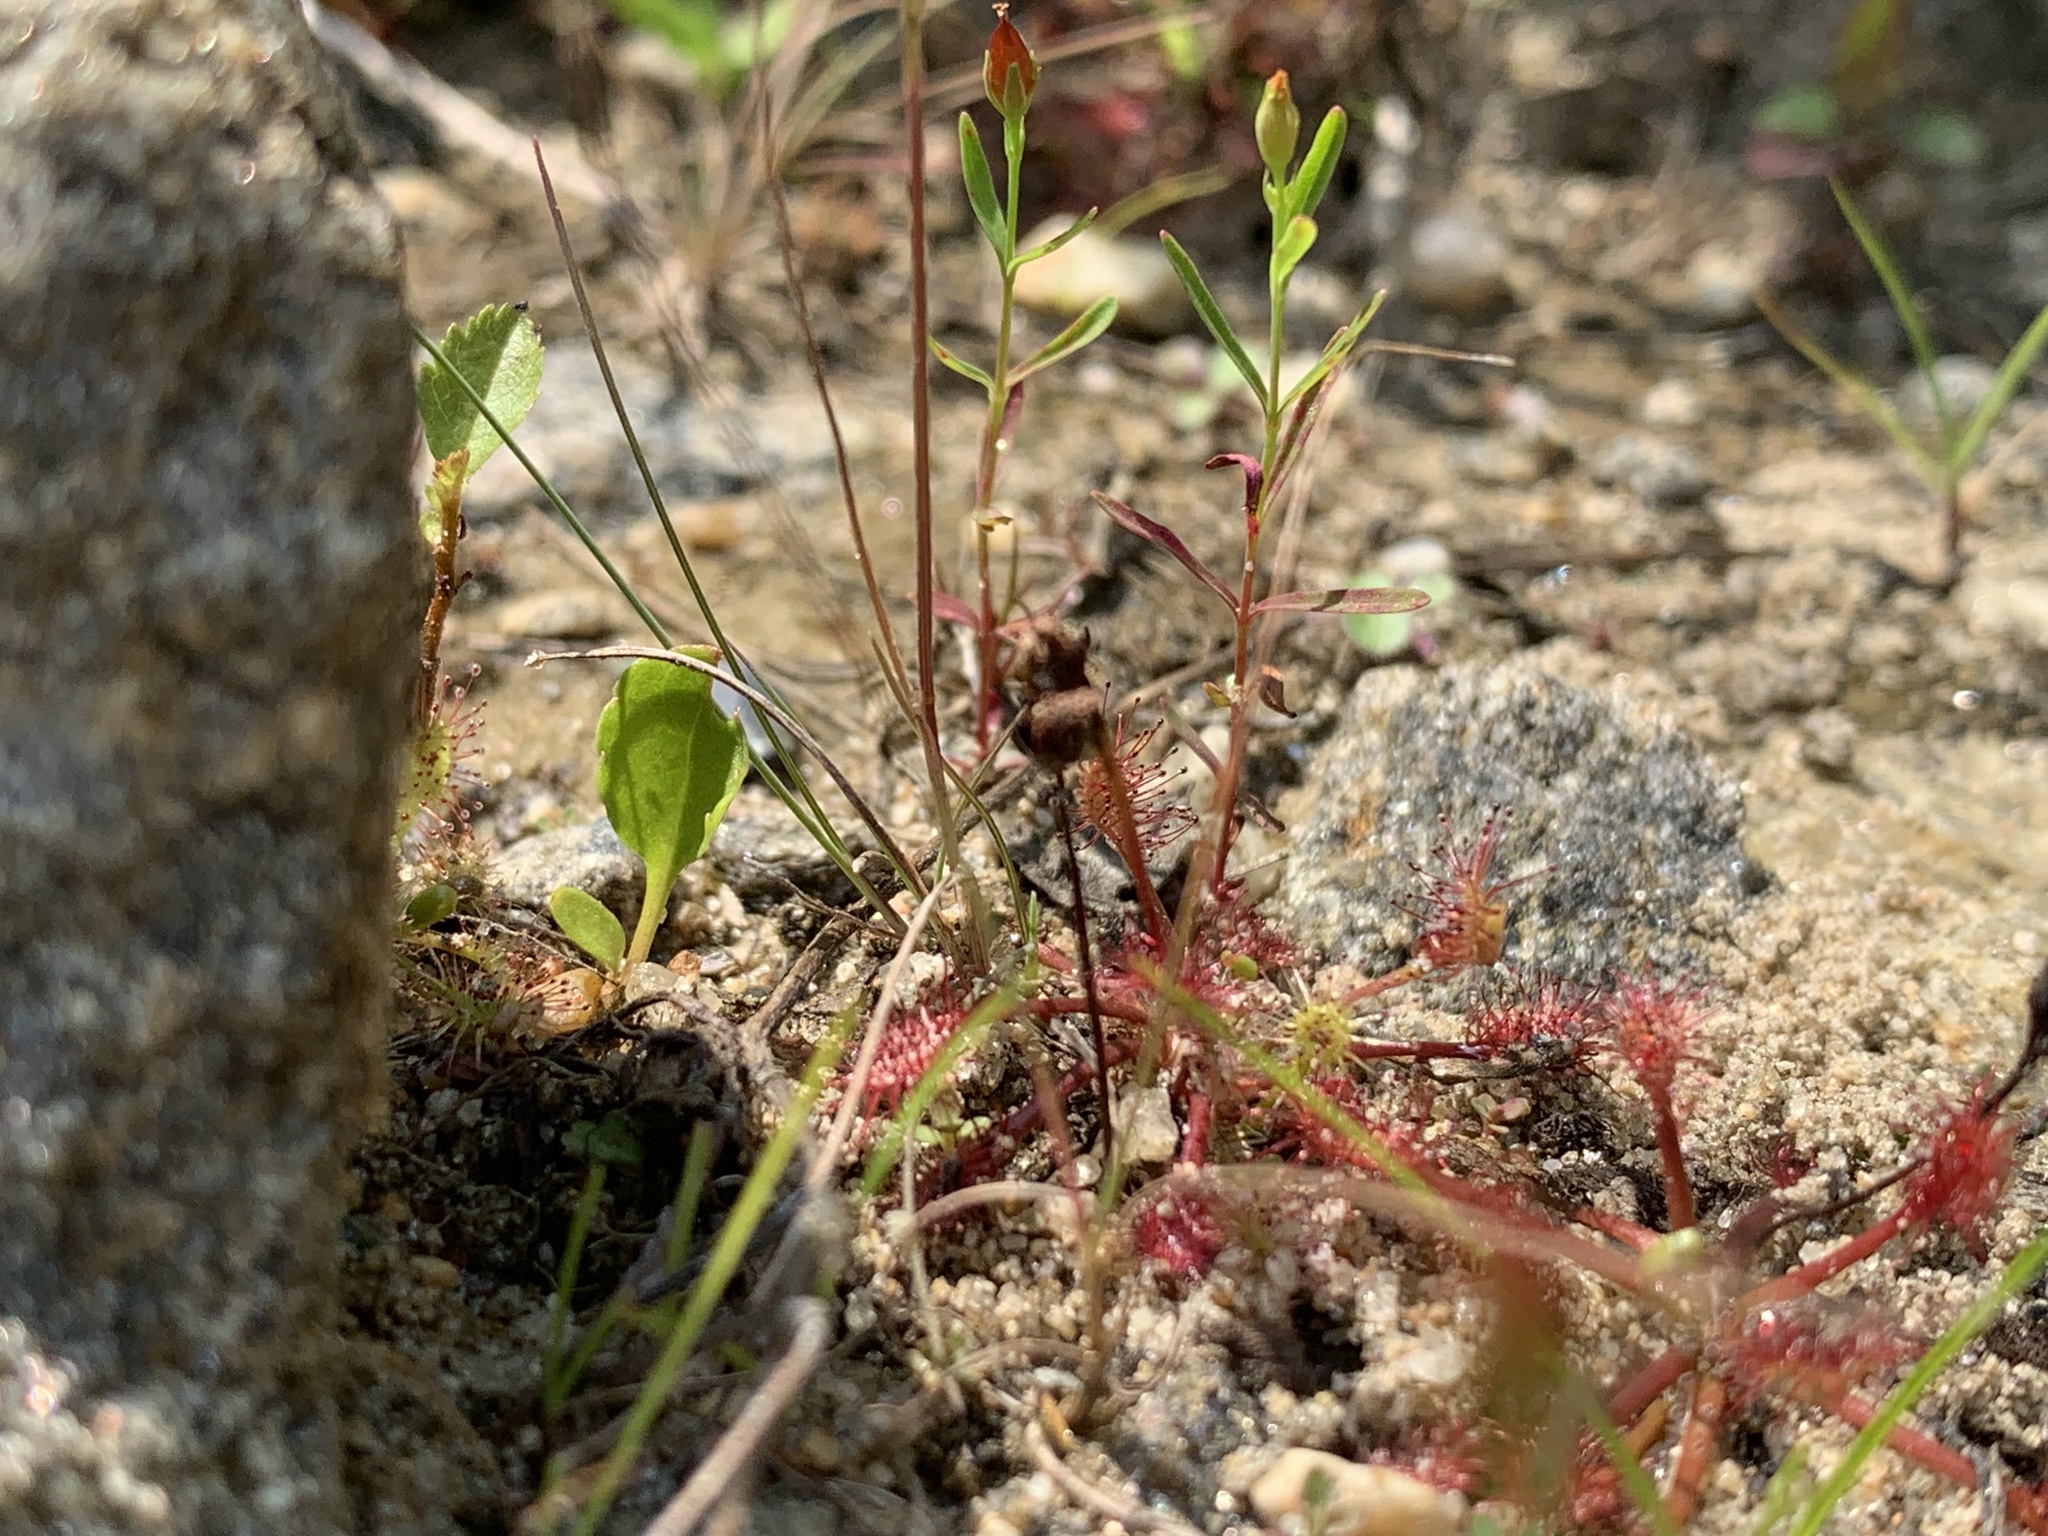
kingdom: Plantae
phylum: Tracheophyta
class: Magnoliopsida
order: Caryophyllales
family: Droseraceae
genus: Drosera
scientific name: Drosera intermedia
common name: Oblong-leaved sundew
